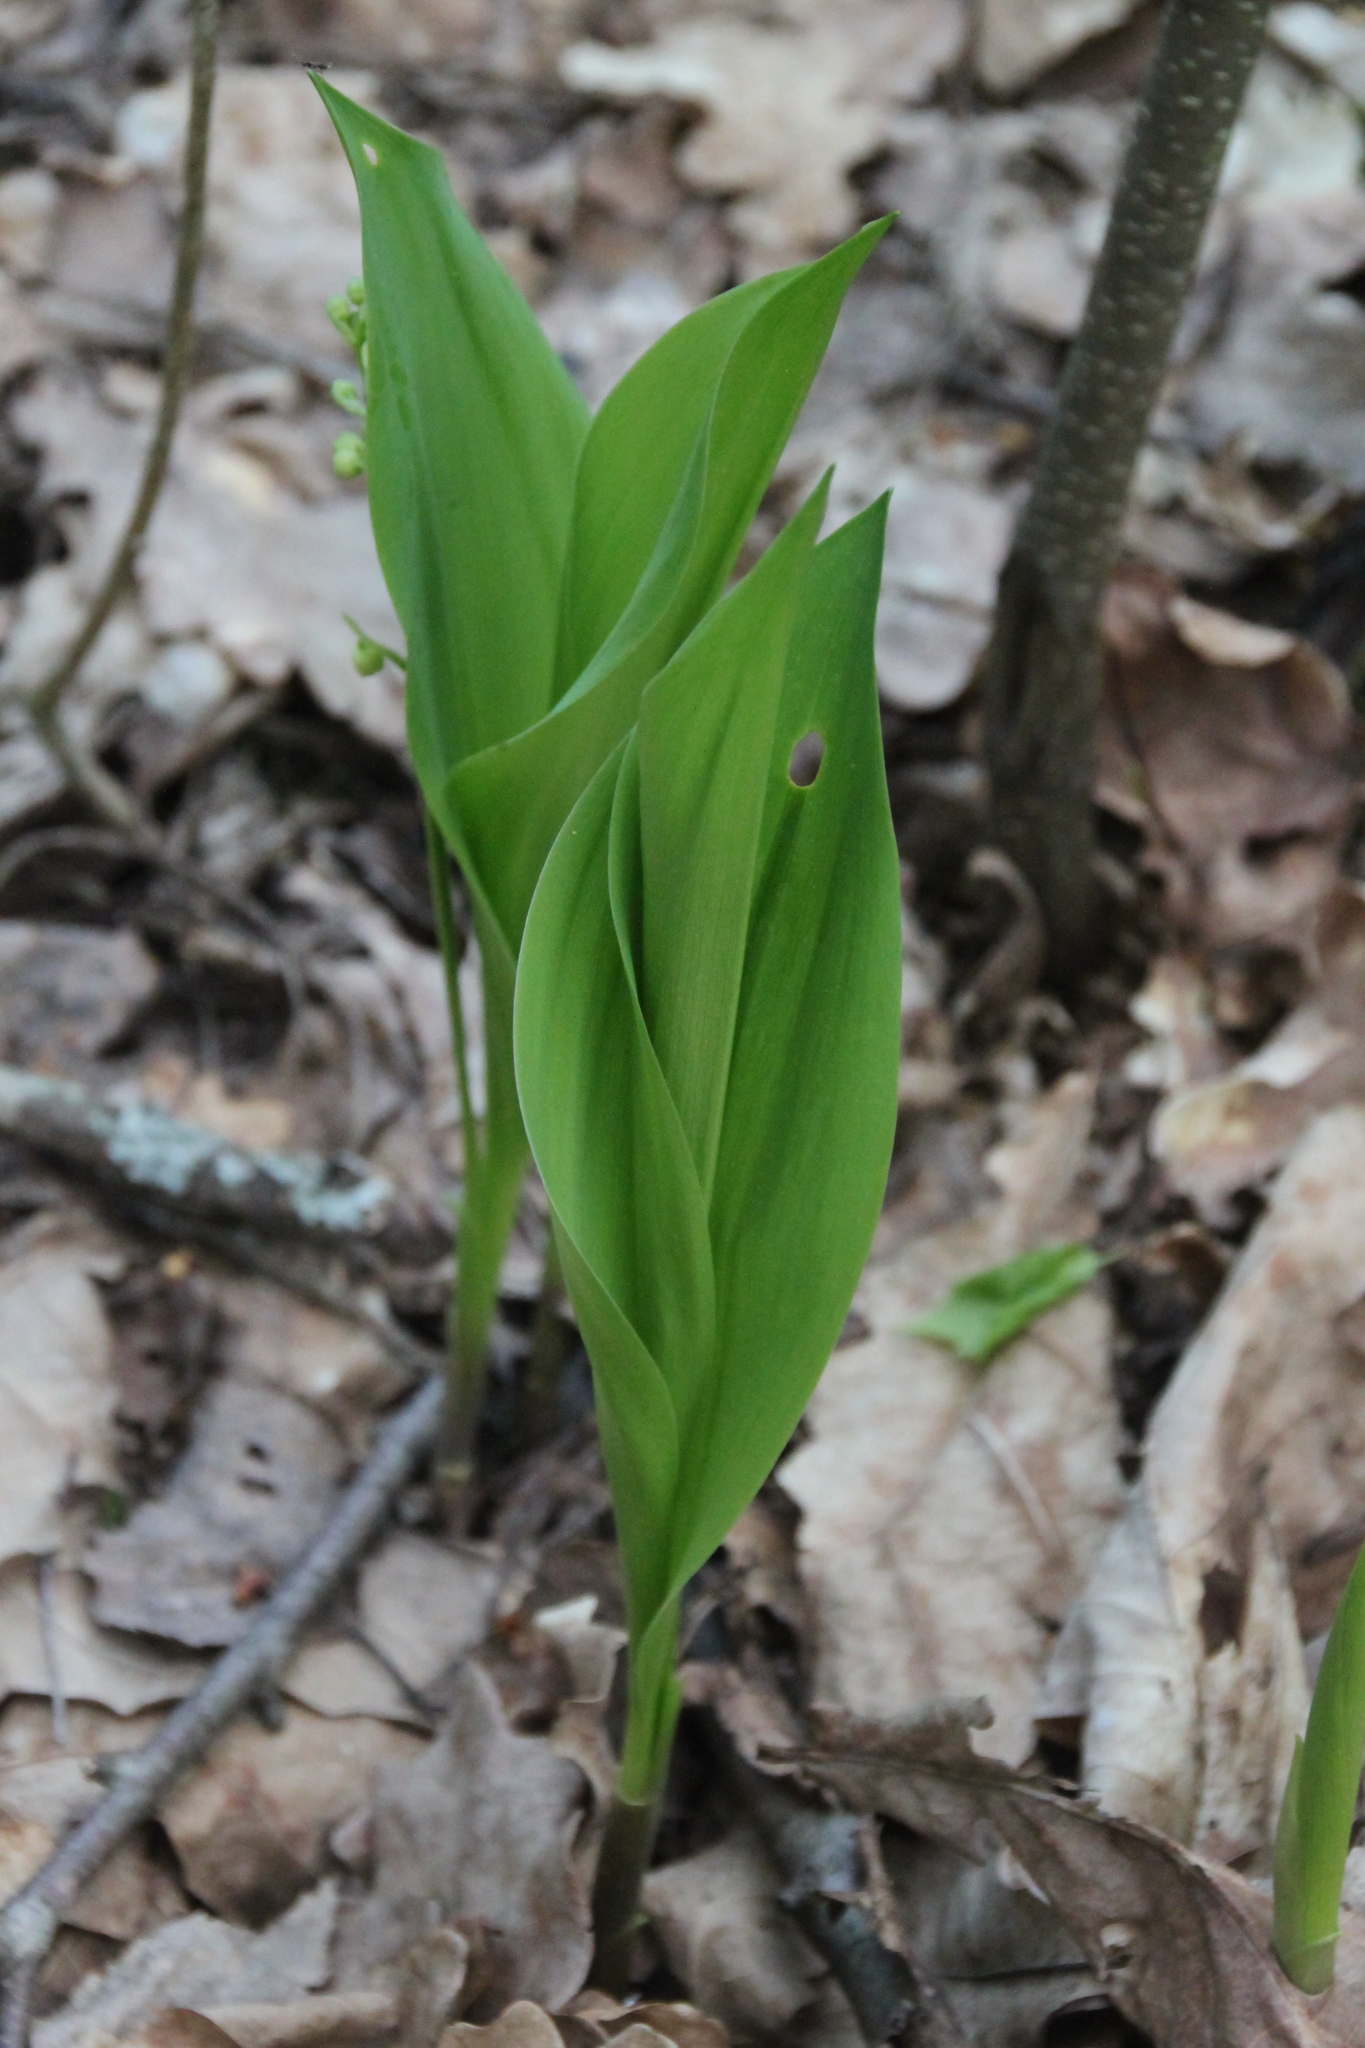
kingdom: Plantae
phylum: Tracheophyta
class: Liliopsida
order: Asparagales
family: Asparagaceae
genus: Convallaria
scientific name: Convallaria majalis
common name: Lily-of-the-valley
